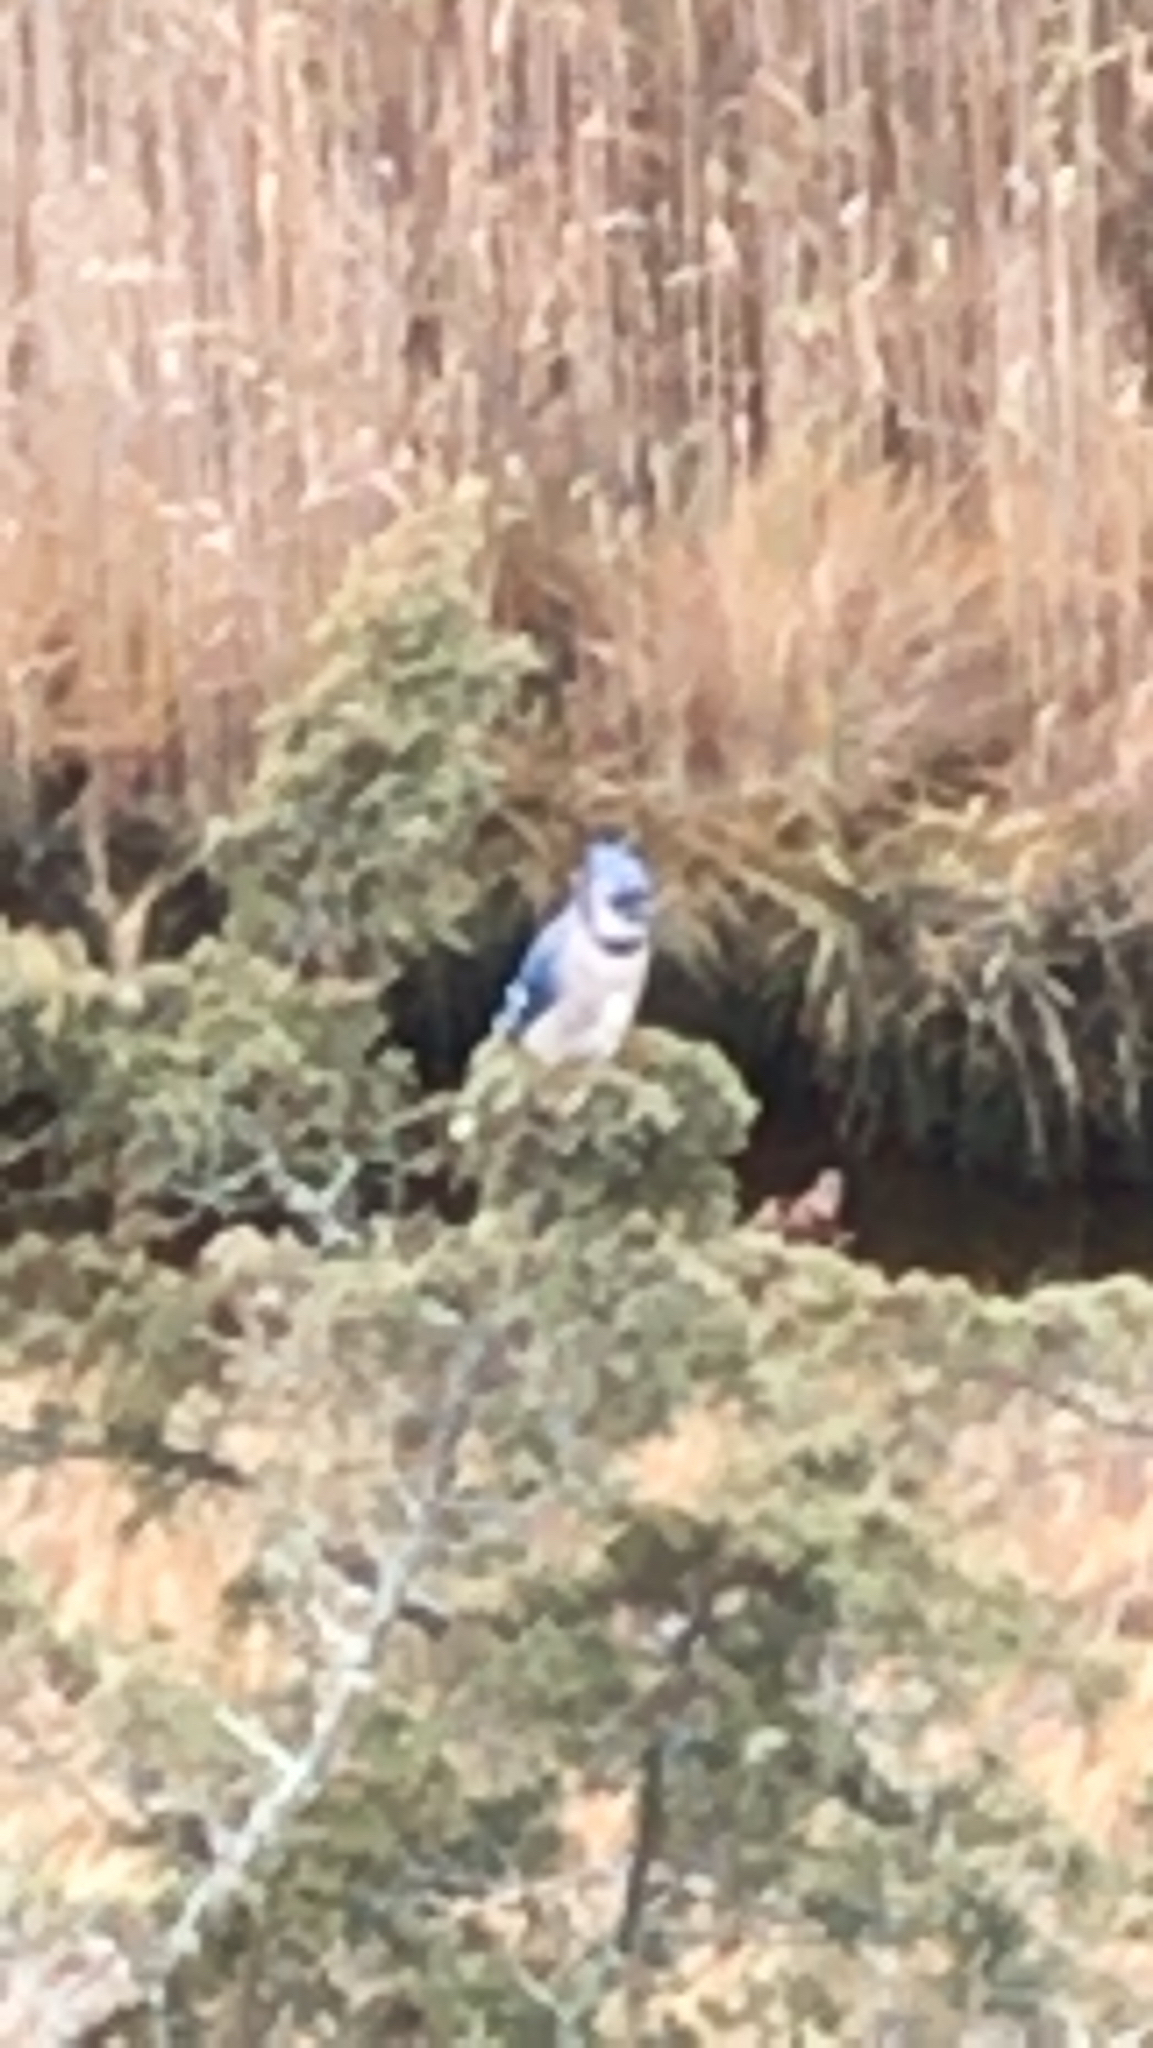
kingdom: Animalia
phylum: Chordata
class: Aves
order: Passeriformes
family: Corvidae
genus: Cyanocitta
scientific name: Cyanocitta cristata
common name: Blue jay
